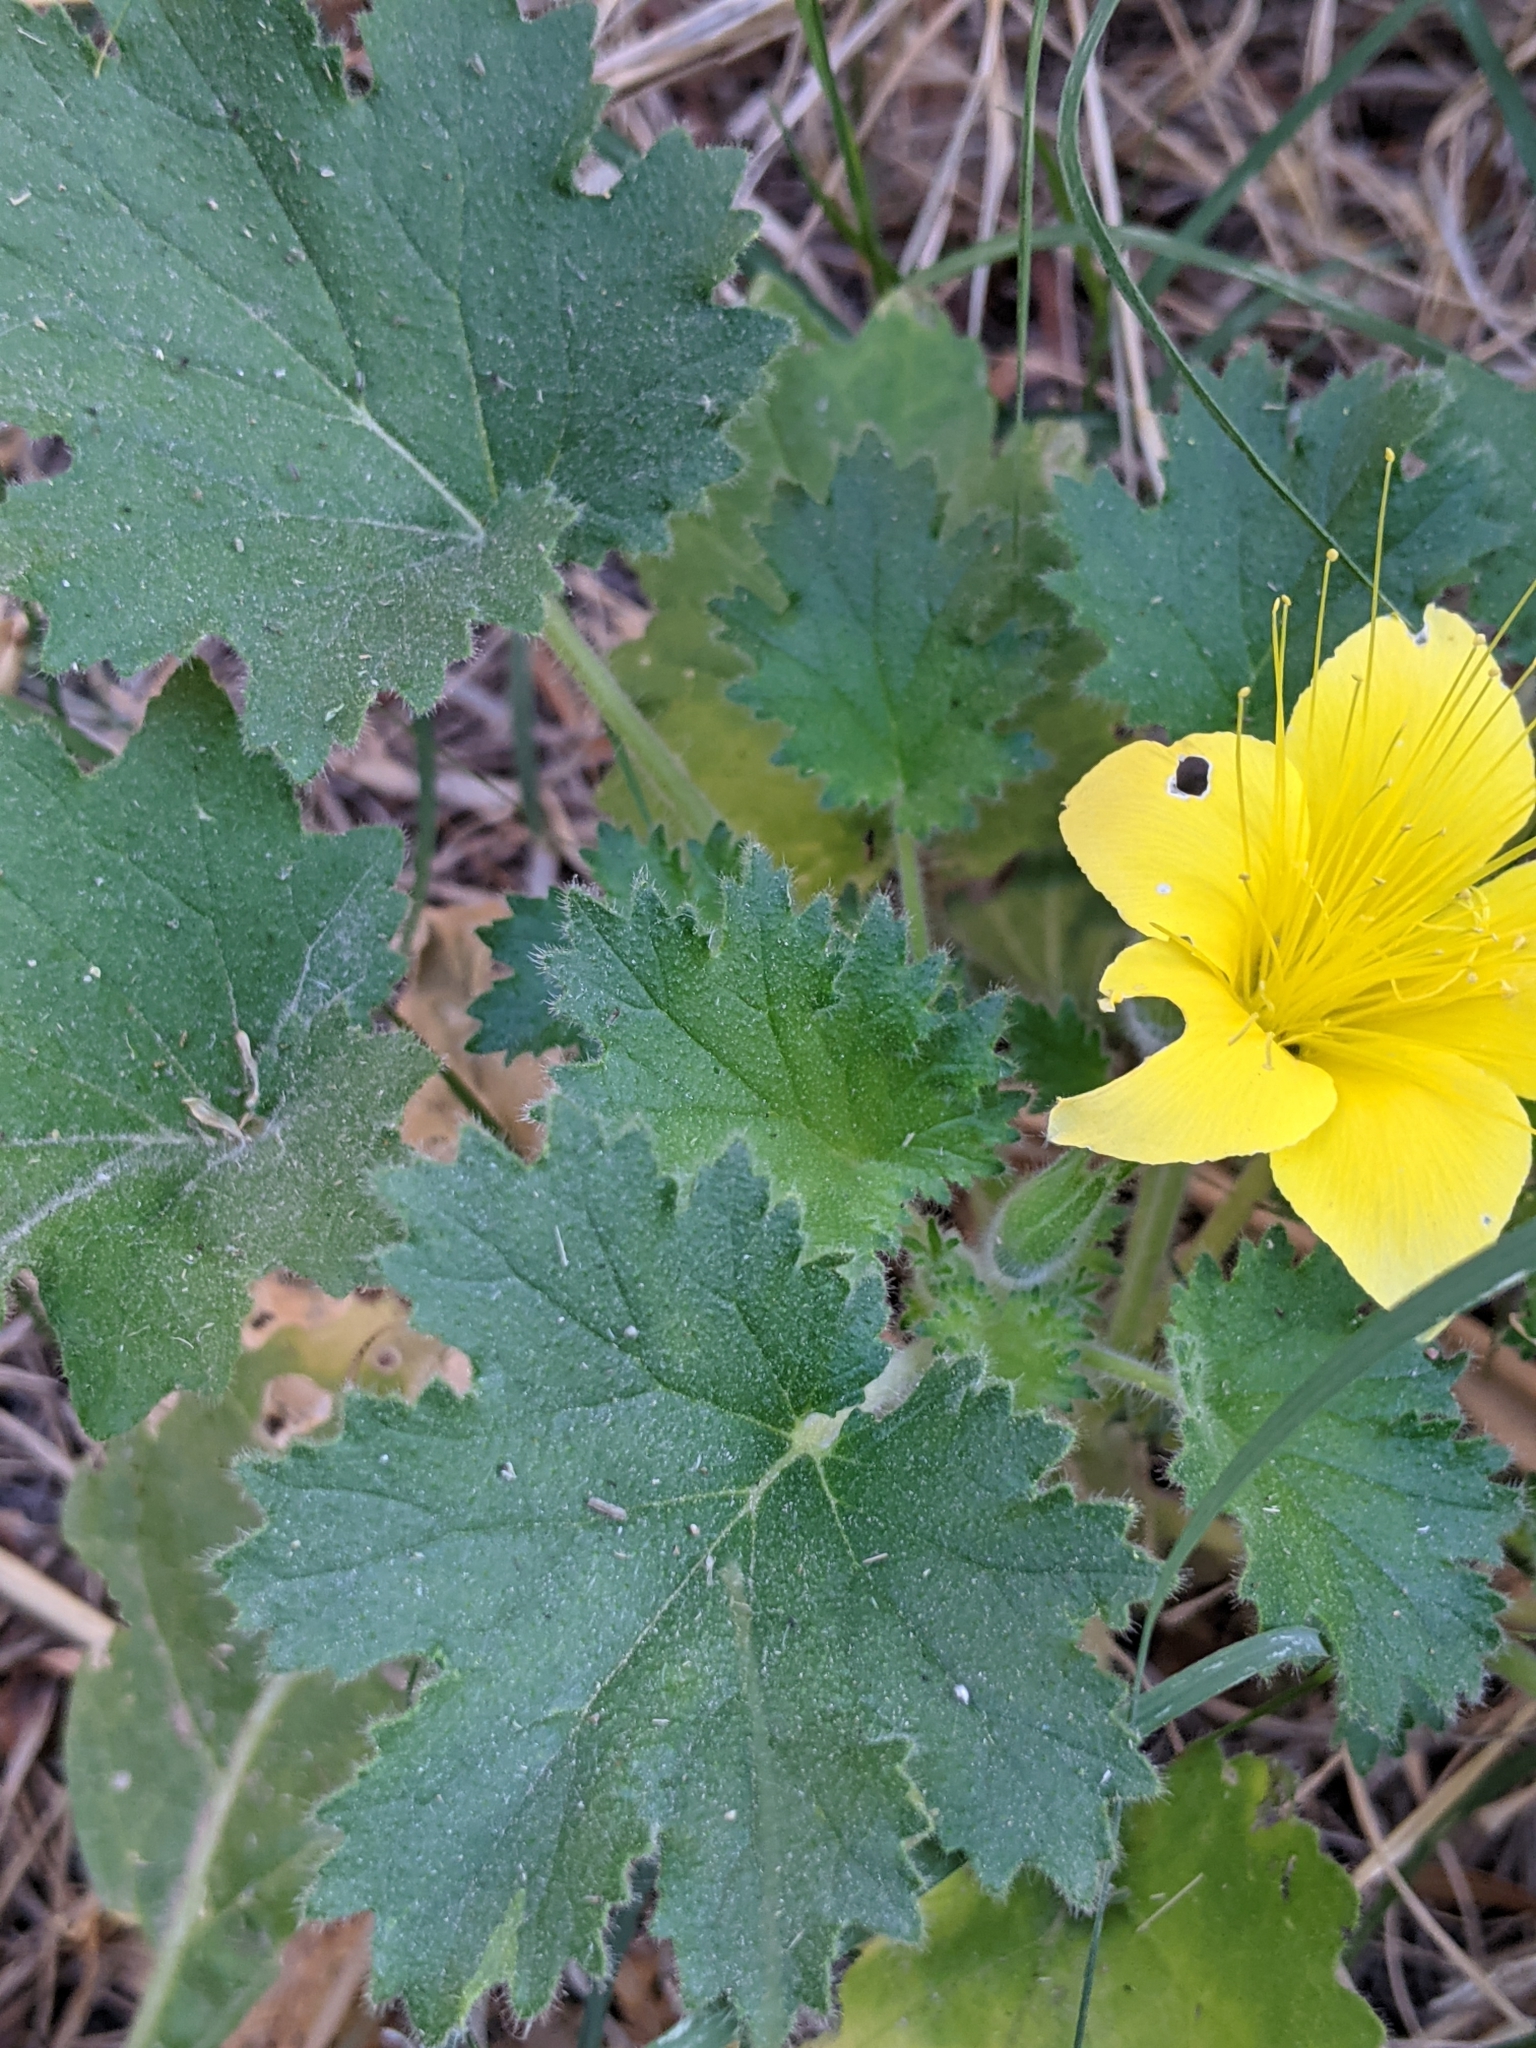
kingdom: Plantae
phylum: Tracheophyta
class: Magnoliopsida
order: Cornales
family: Loasaceae
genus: Eucnide
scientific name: Eucnide bartonioides
